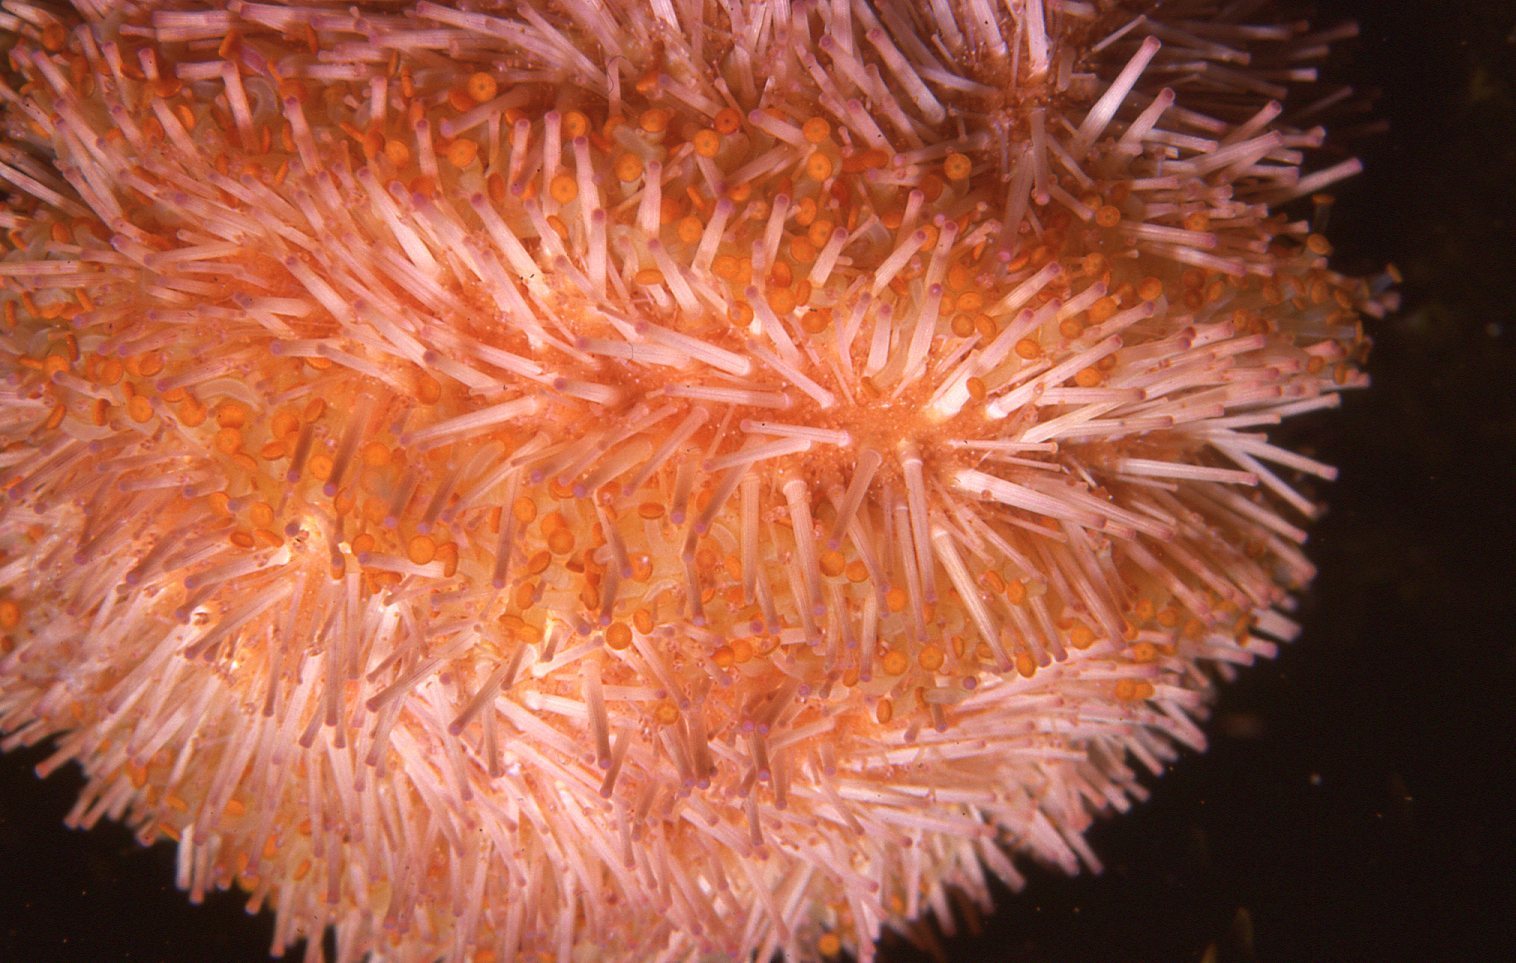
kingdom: Animalia
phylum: Echinodermata
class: Echinoidea
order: Camarodonta
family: Temnopleuridae
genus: Holopneustes
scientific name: Holopneustes purpurascens
